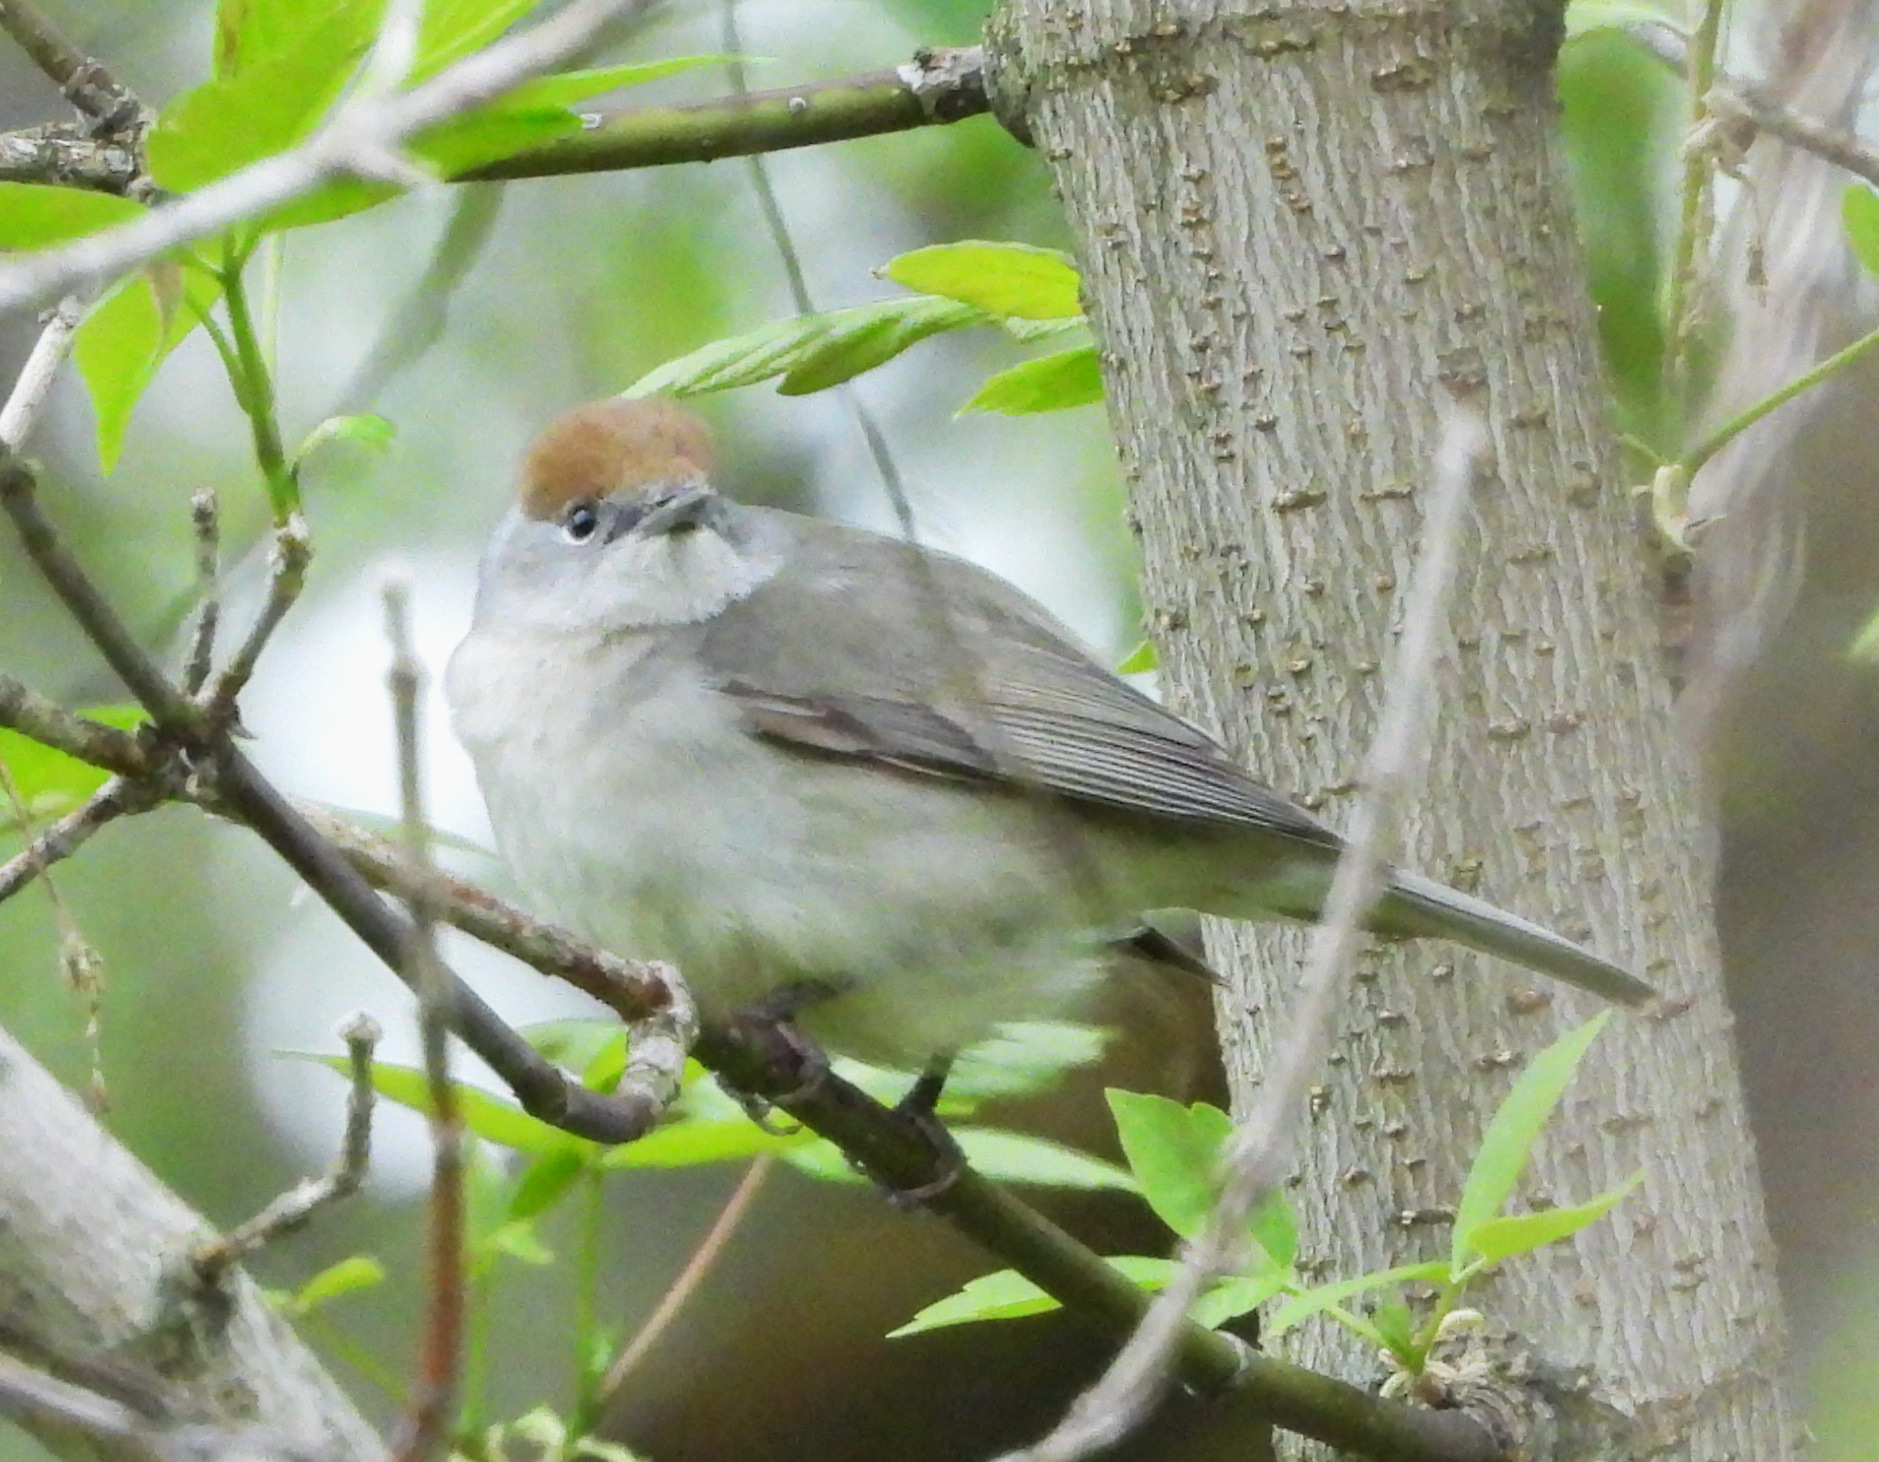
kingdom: Animalia
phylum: Chordata
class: Aves
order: Passeriformes
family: Sylviidae
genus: Sylvia
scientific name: Sylvia atricapilla
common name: Eurasian blackcap
